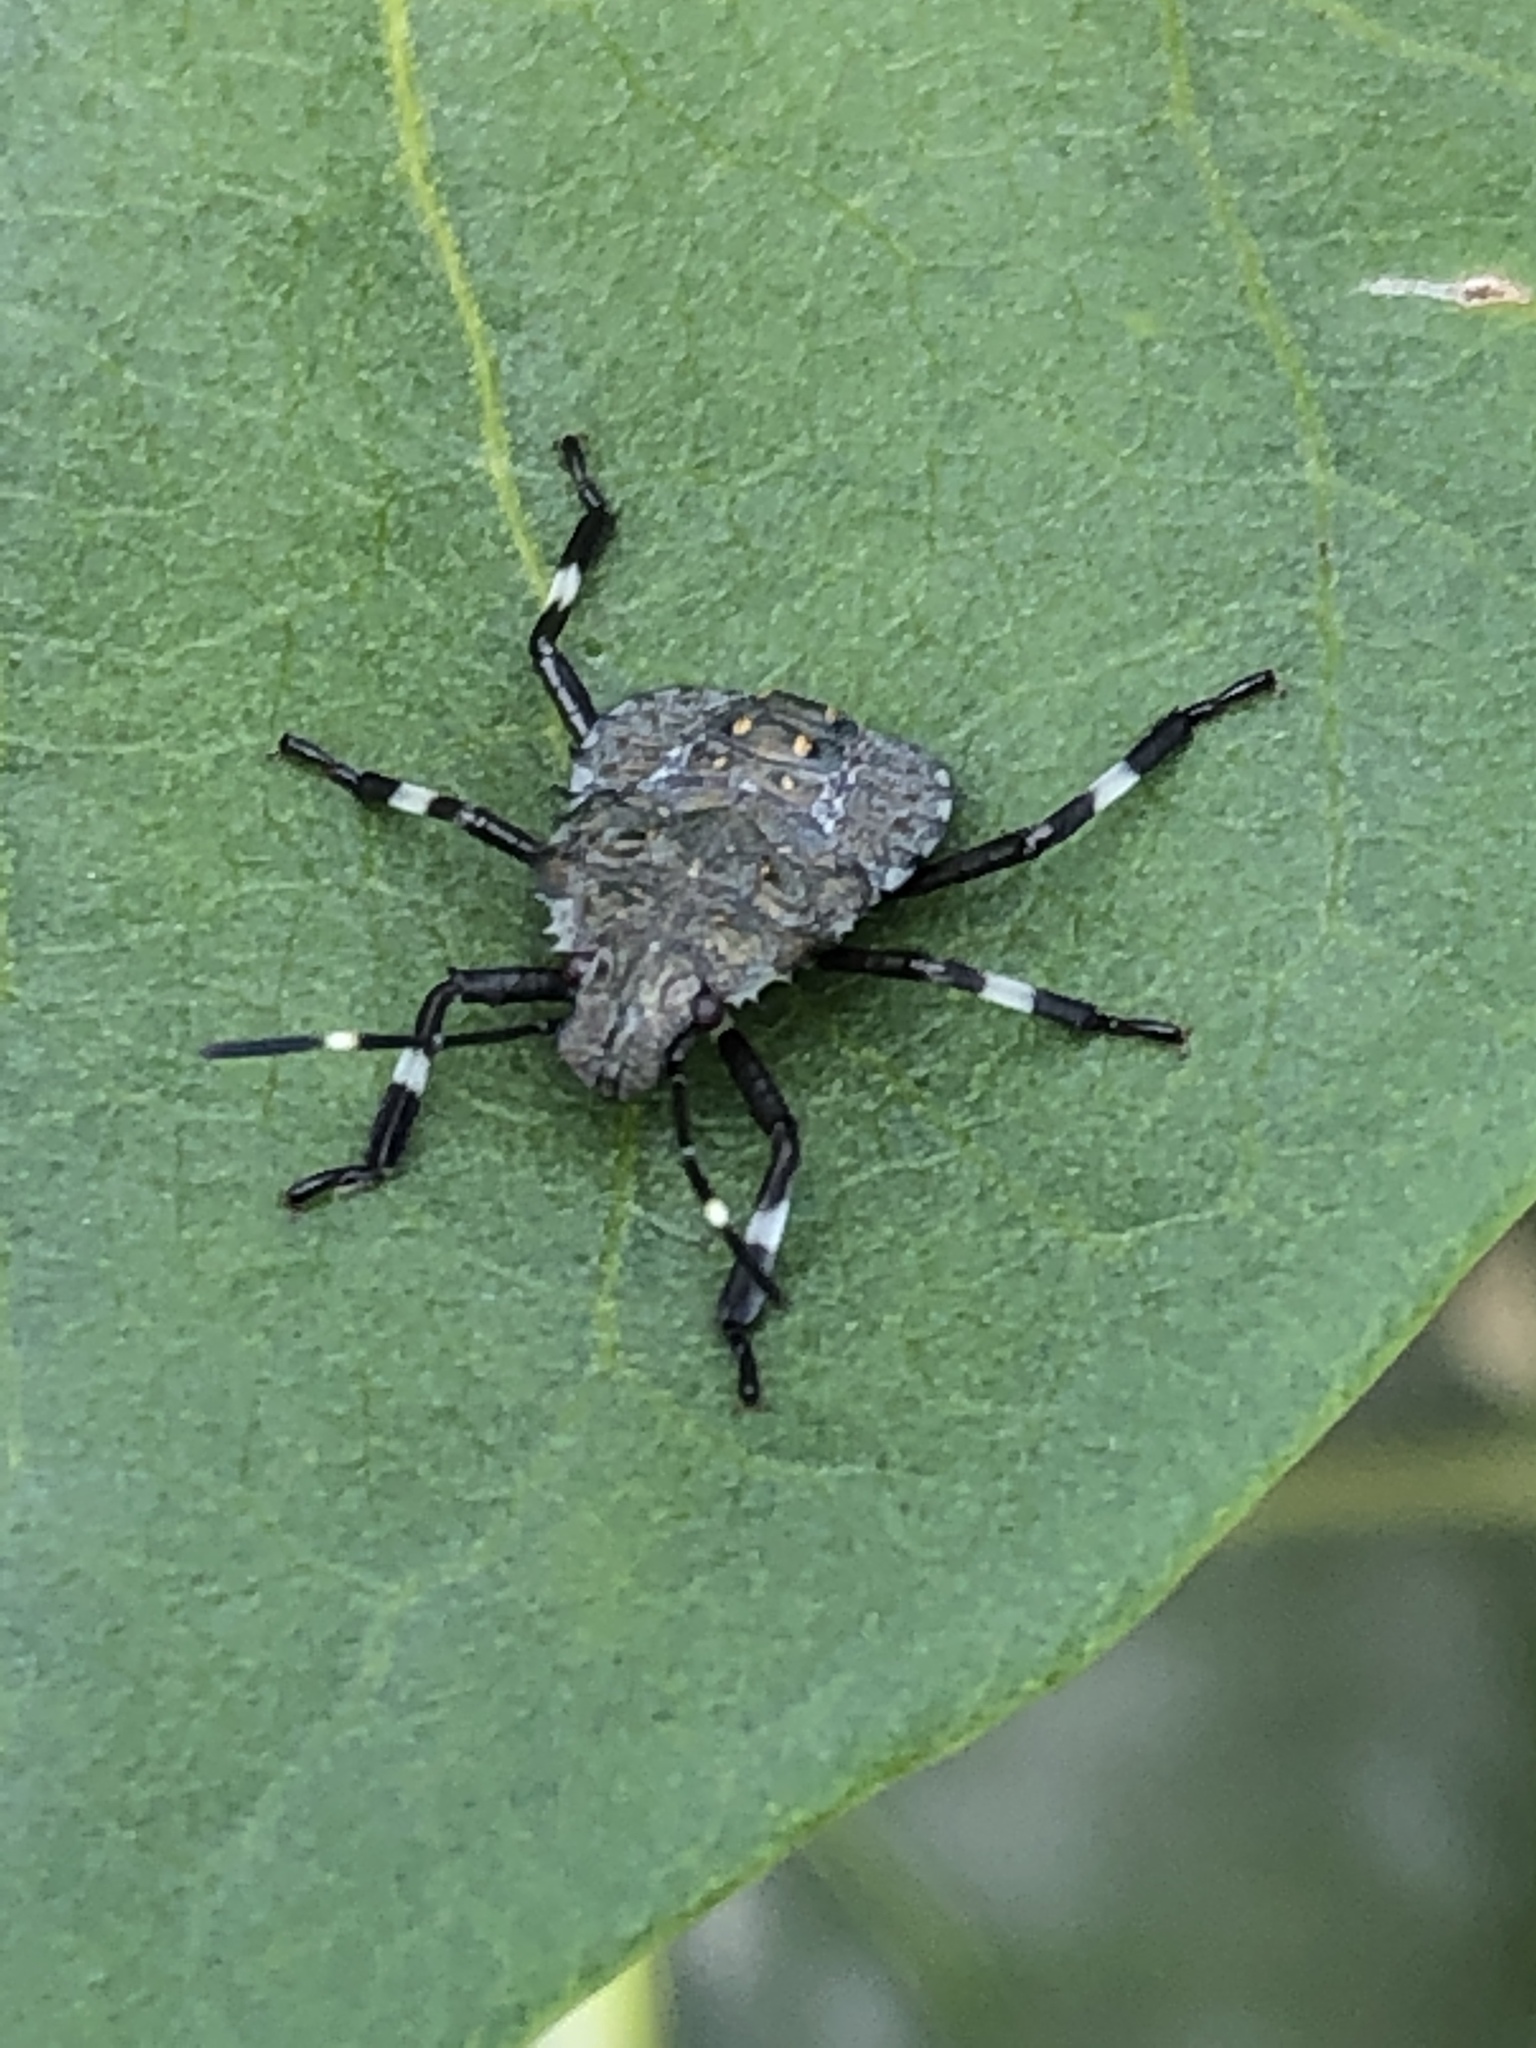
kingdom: Animalia
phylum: Arthropoda
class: Insecta
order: Hemiptera
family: Pentatomidae
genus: Halyomorpha
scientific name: Halyomorpha halys
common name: Brown marmorated stink bug
